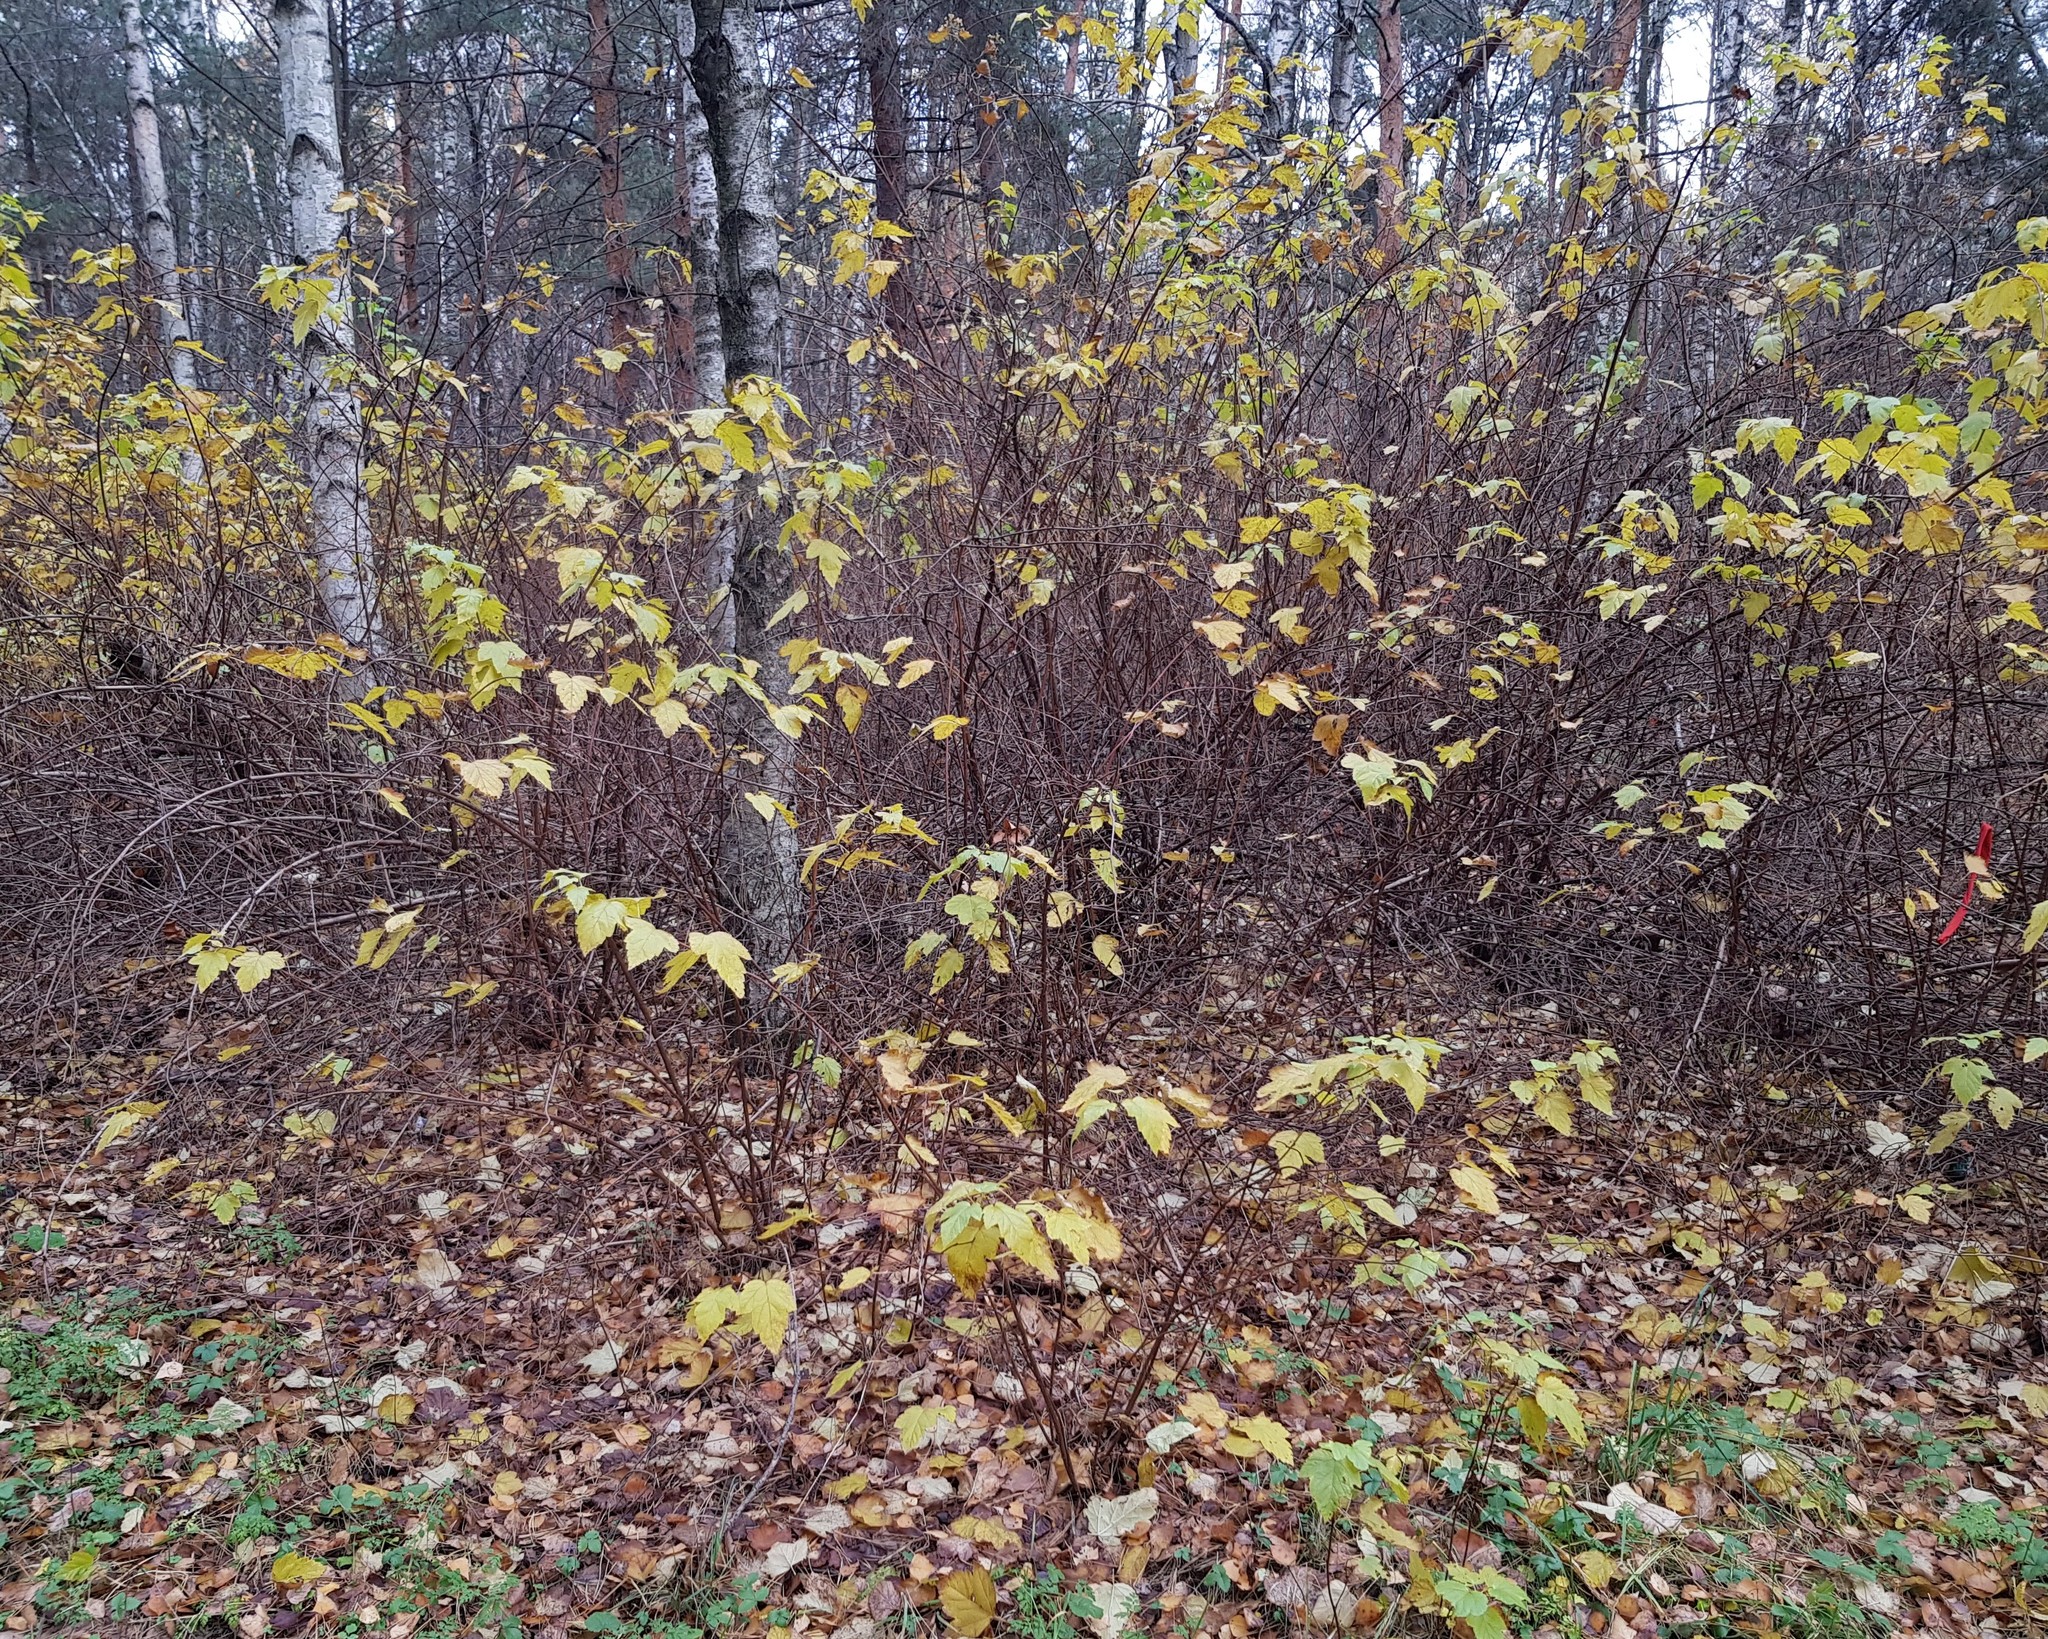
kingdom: Plantae
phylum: Tracheophyta
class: Magnoliopsida
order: Rosales
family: Rosaceae
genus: Physocarpus
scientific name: Physocarpus opulifolius
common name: Ninebark
